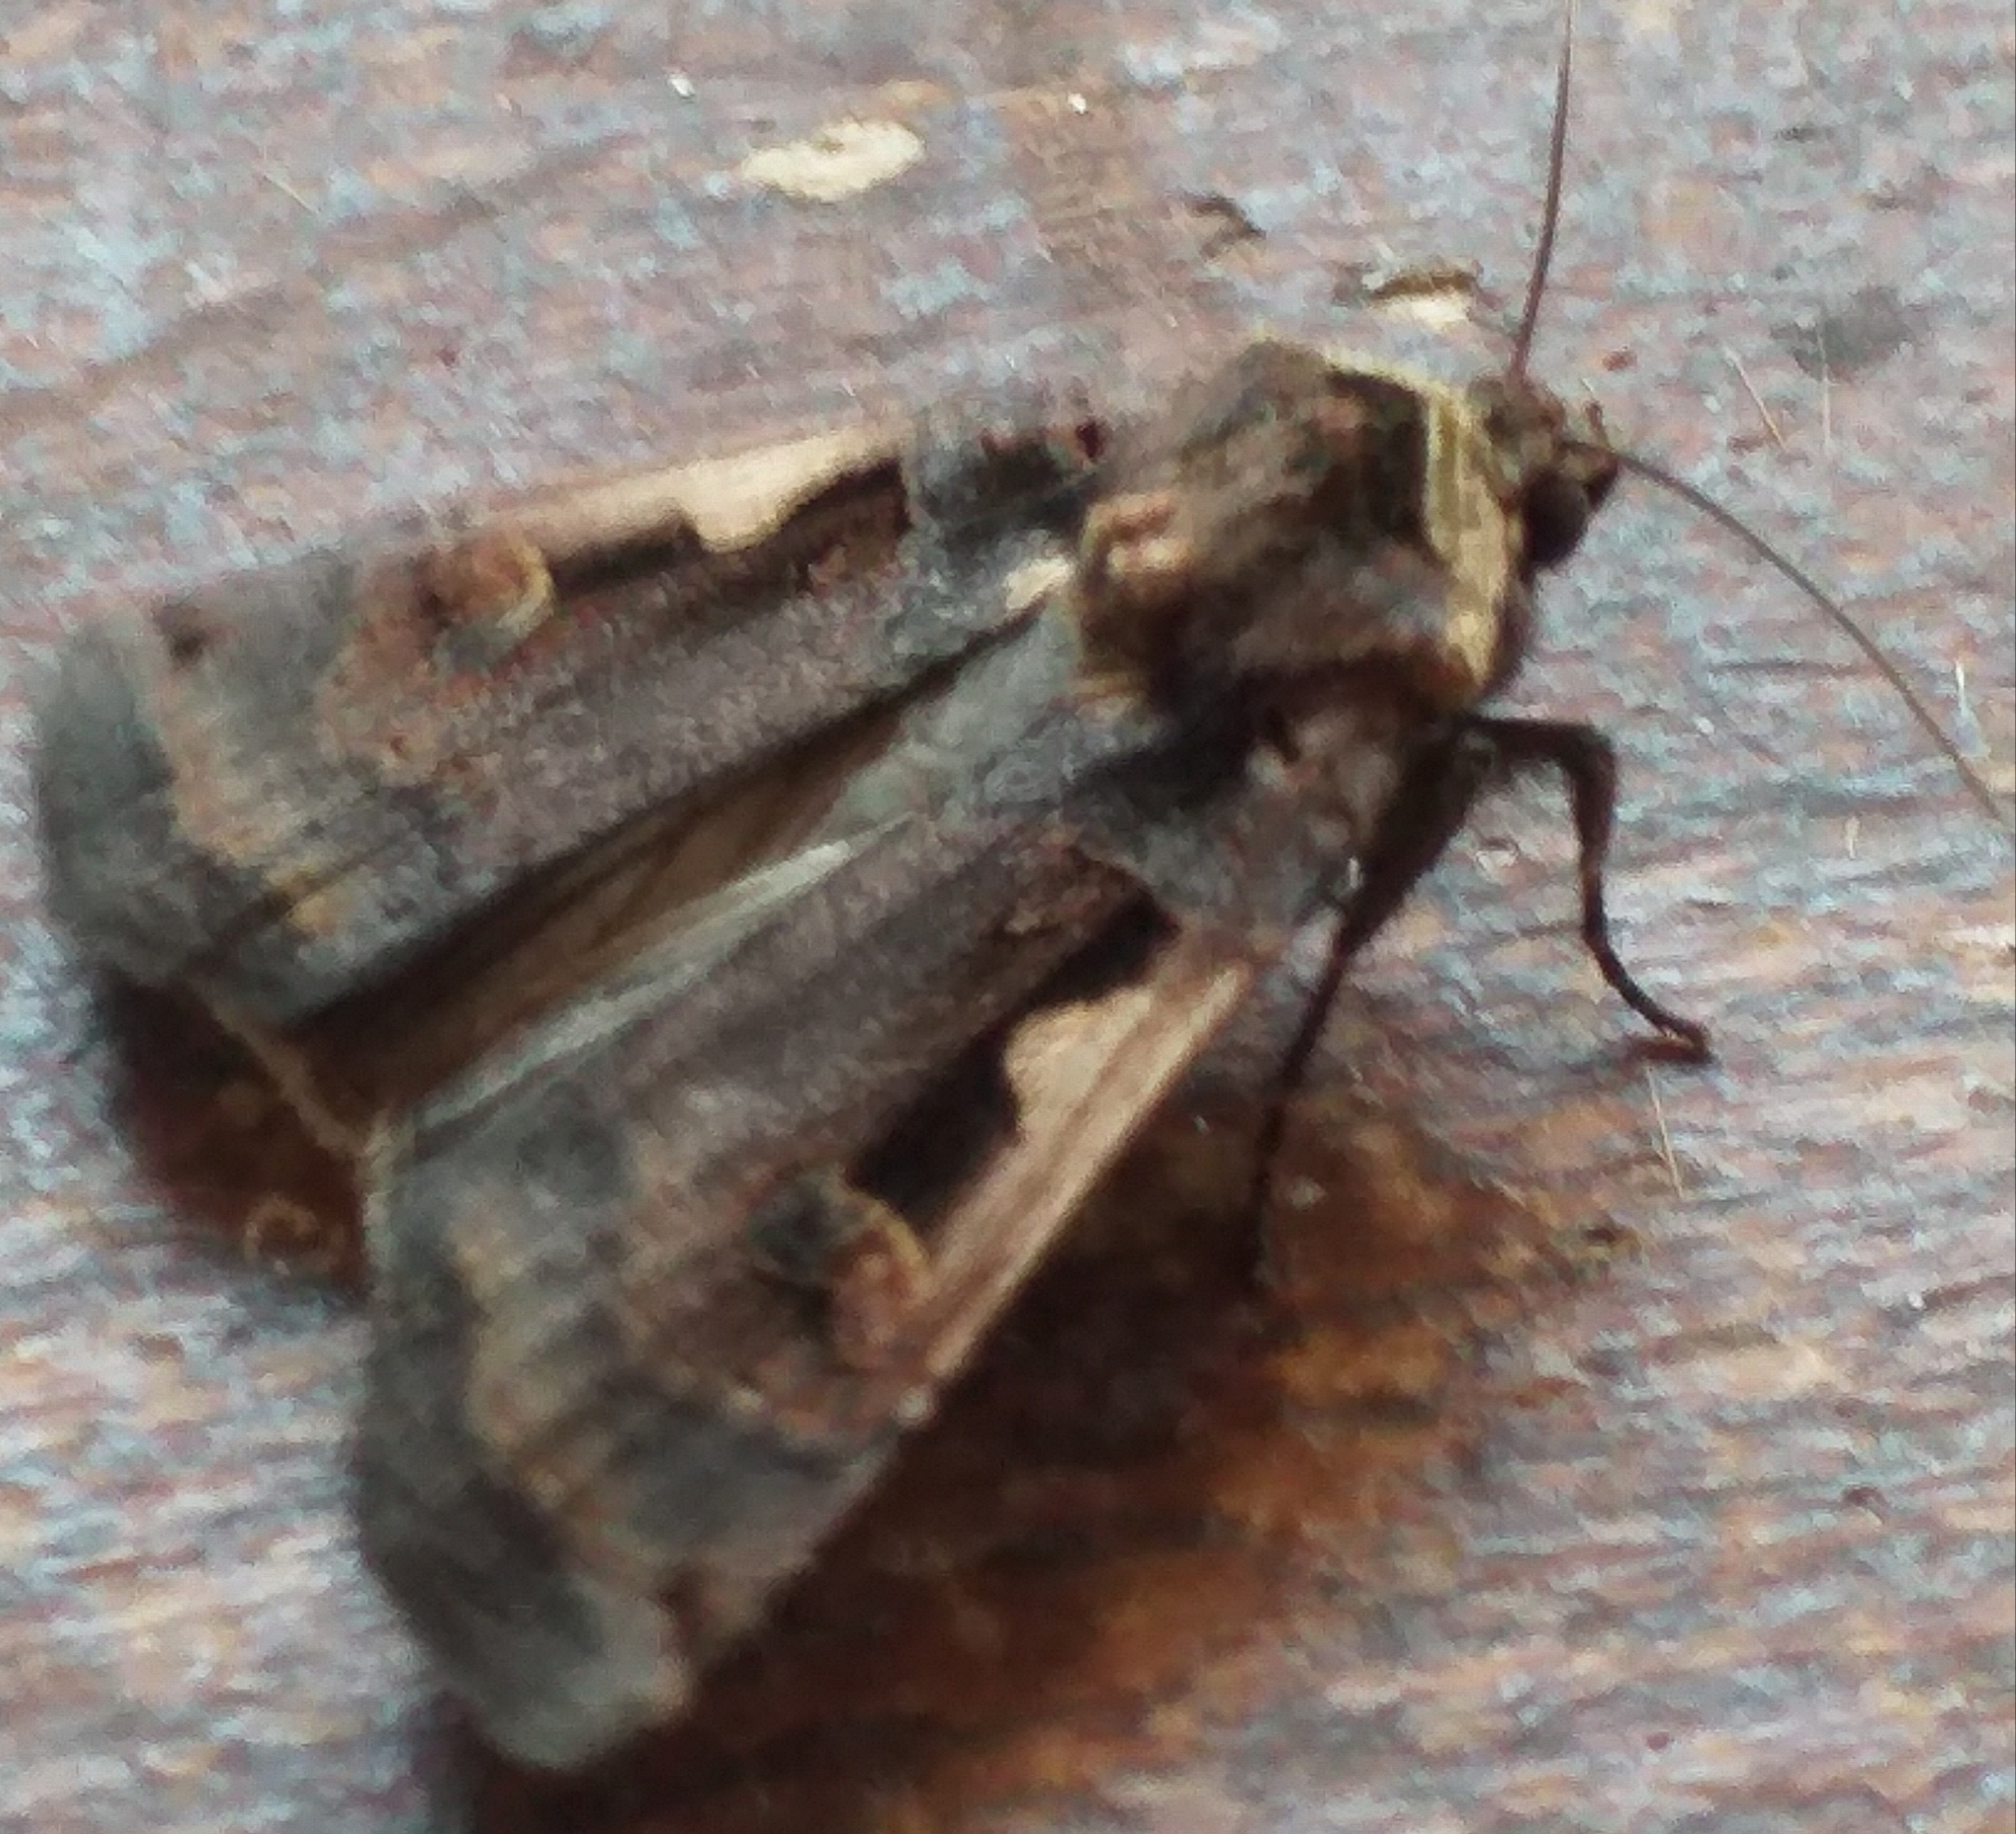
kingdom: Animalia
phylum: Arthropoda
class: Insecta
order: Lepidoptera
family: Noctuidae
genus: Xestia
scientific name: Xestia c-nigrum
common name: Setaceous hebrew character
